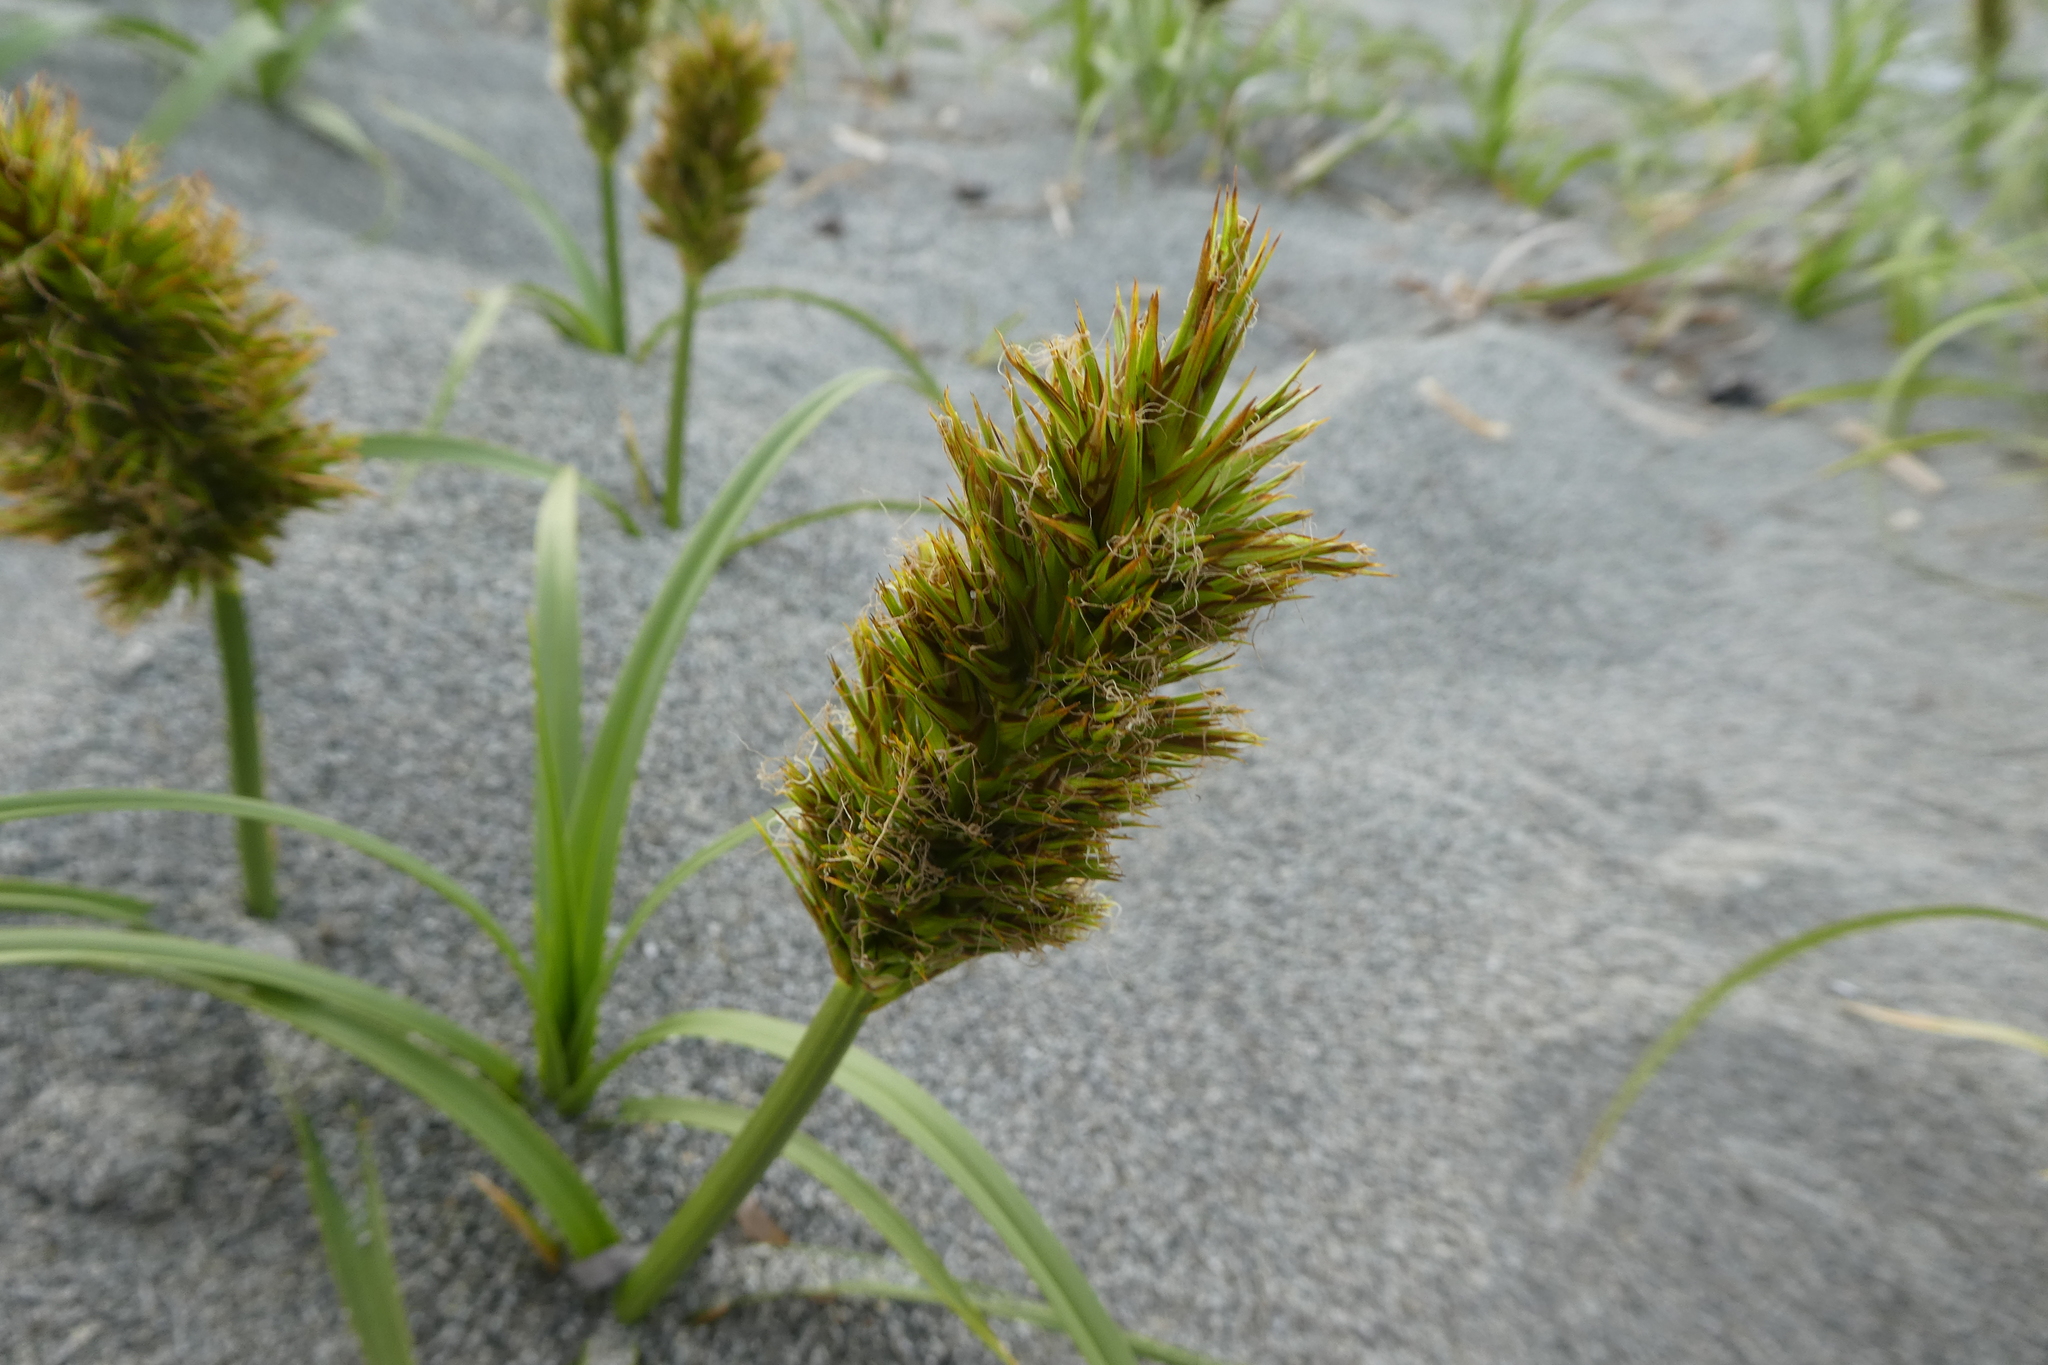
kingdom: Plantae
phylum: Tracheophyta
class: Liliopsida
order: Poales
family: Cyperaceae
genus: Carex
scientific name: Carex macrocephala
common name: Large-head sedge
